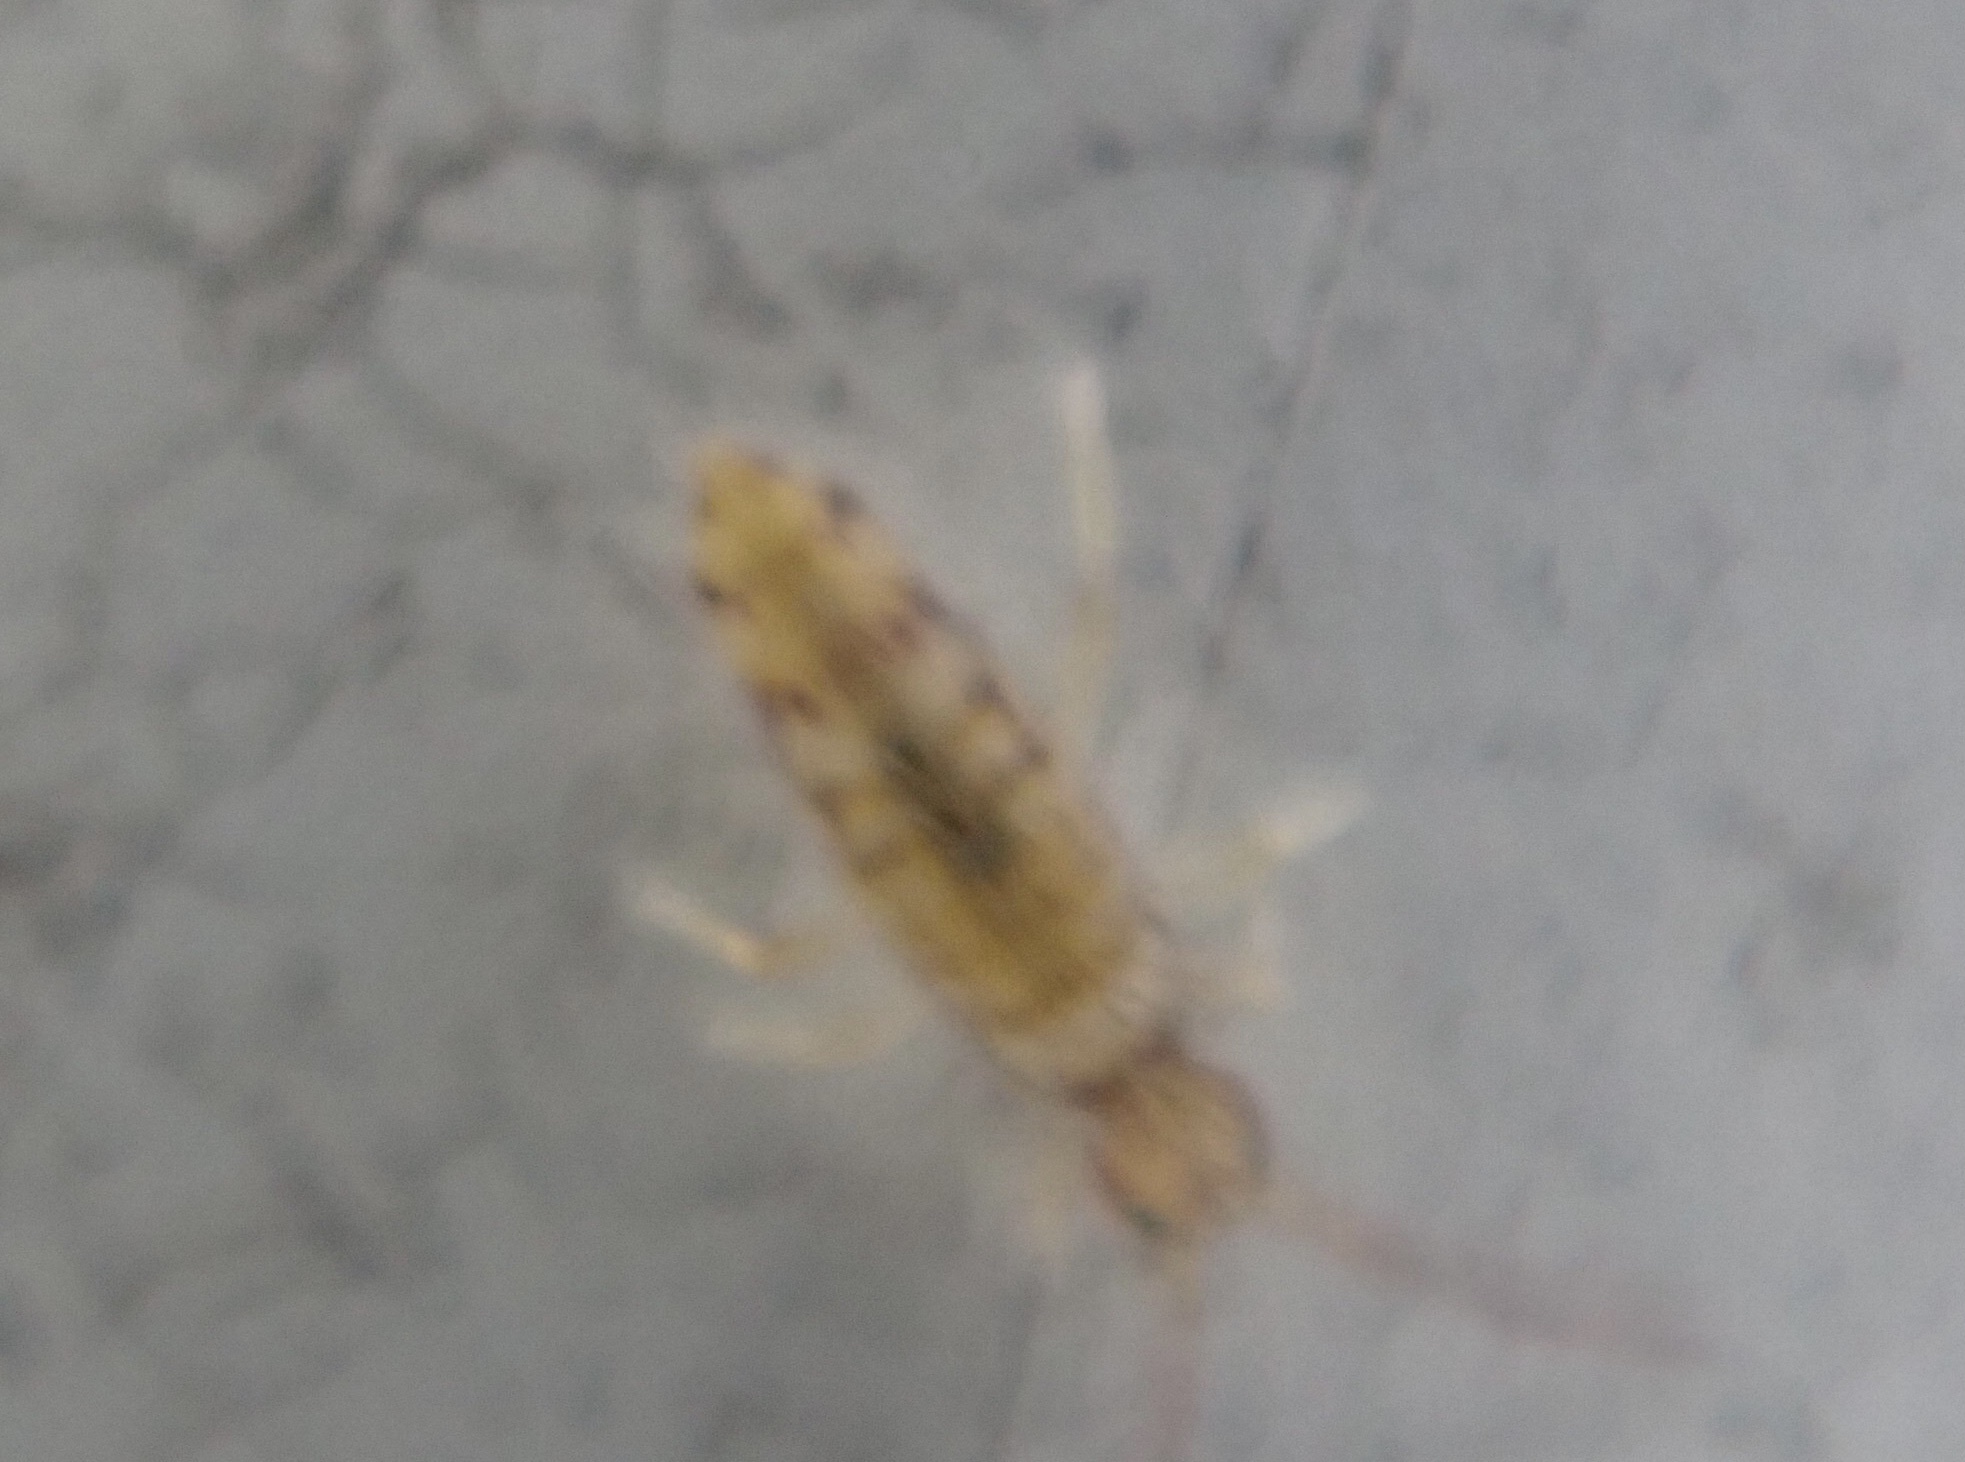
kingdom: Animalia
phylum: Arthropoda
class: Collembola
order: Entomobryomorpha
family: Entomobryidae
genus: Entomobrya
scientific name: Entomobrya atrocincta
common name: Springtail
